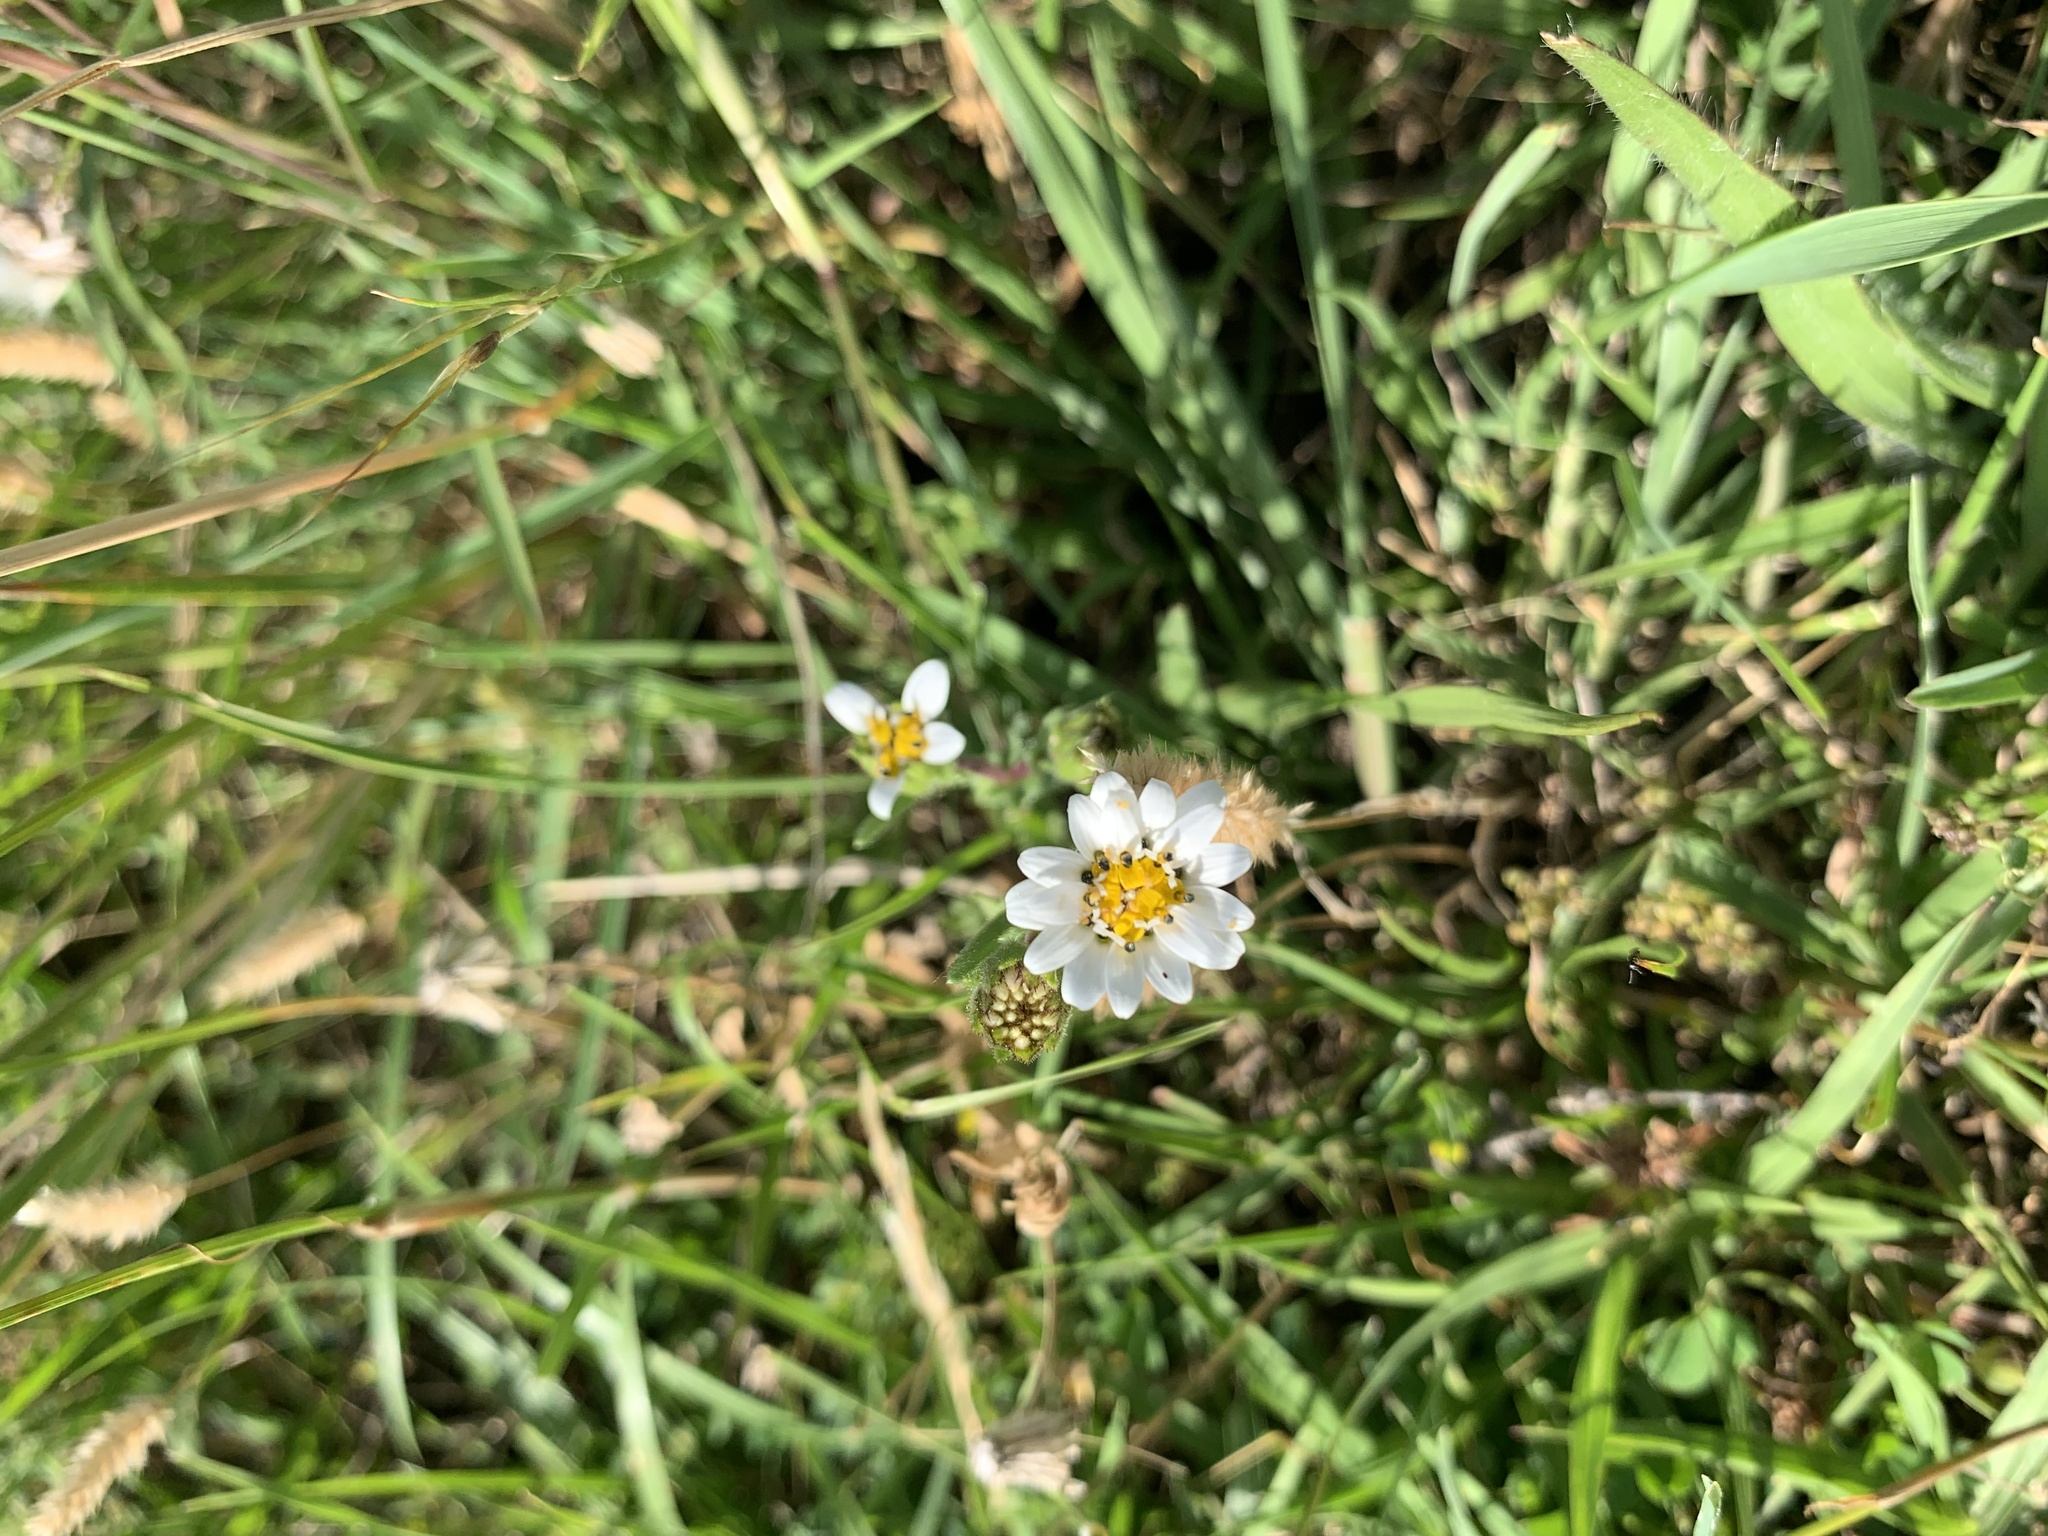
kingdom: Plantae
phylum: Tracheophyta
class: Magnoliopsida
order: Asterales
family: Asteraceae
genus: Perezia
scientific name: Perezia multiflora
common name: Perezia
